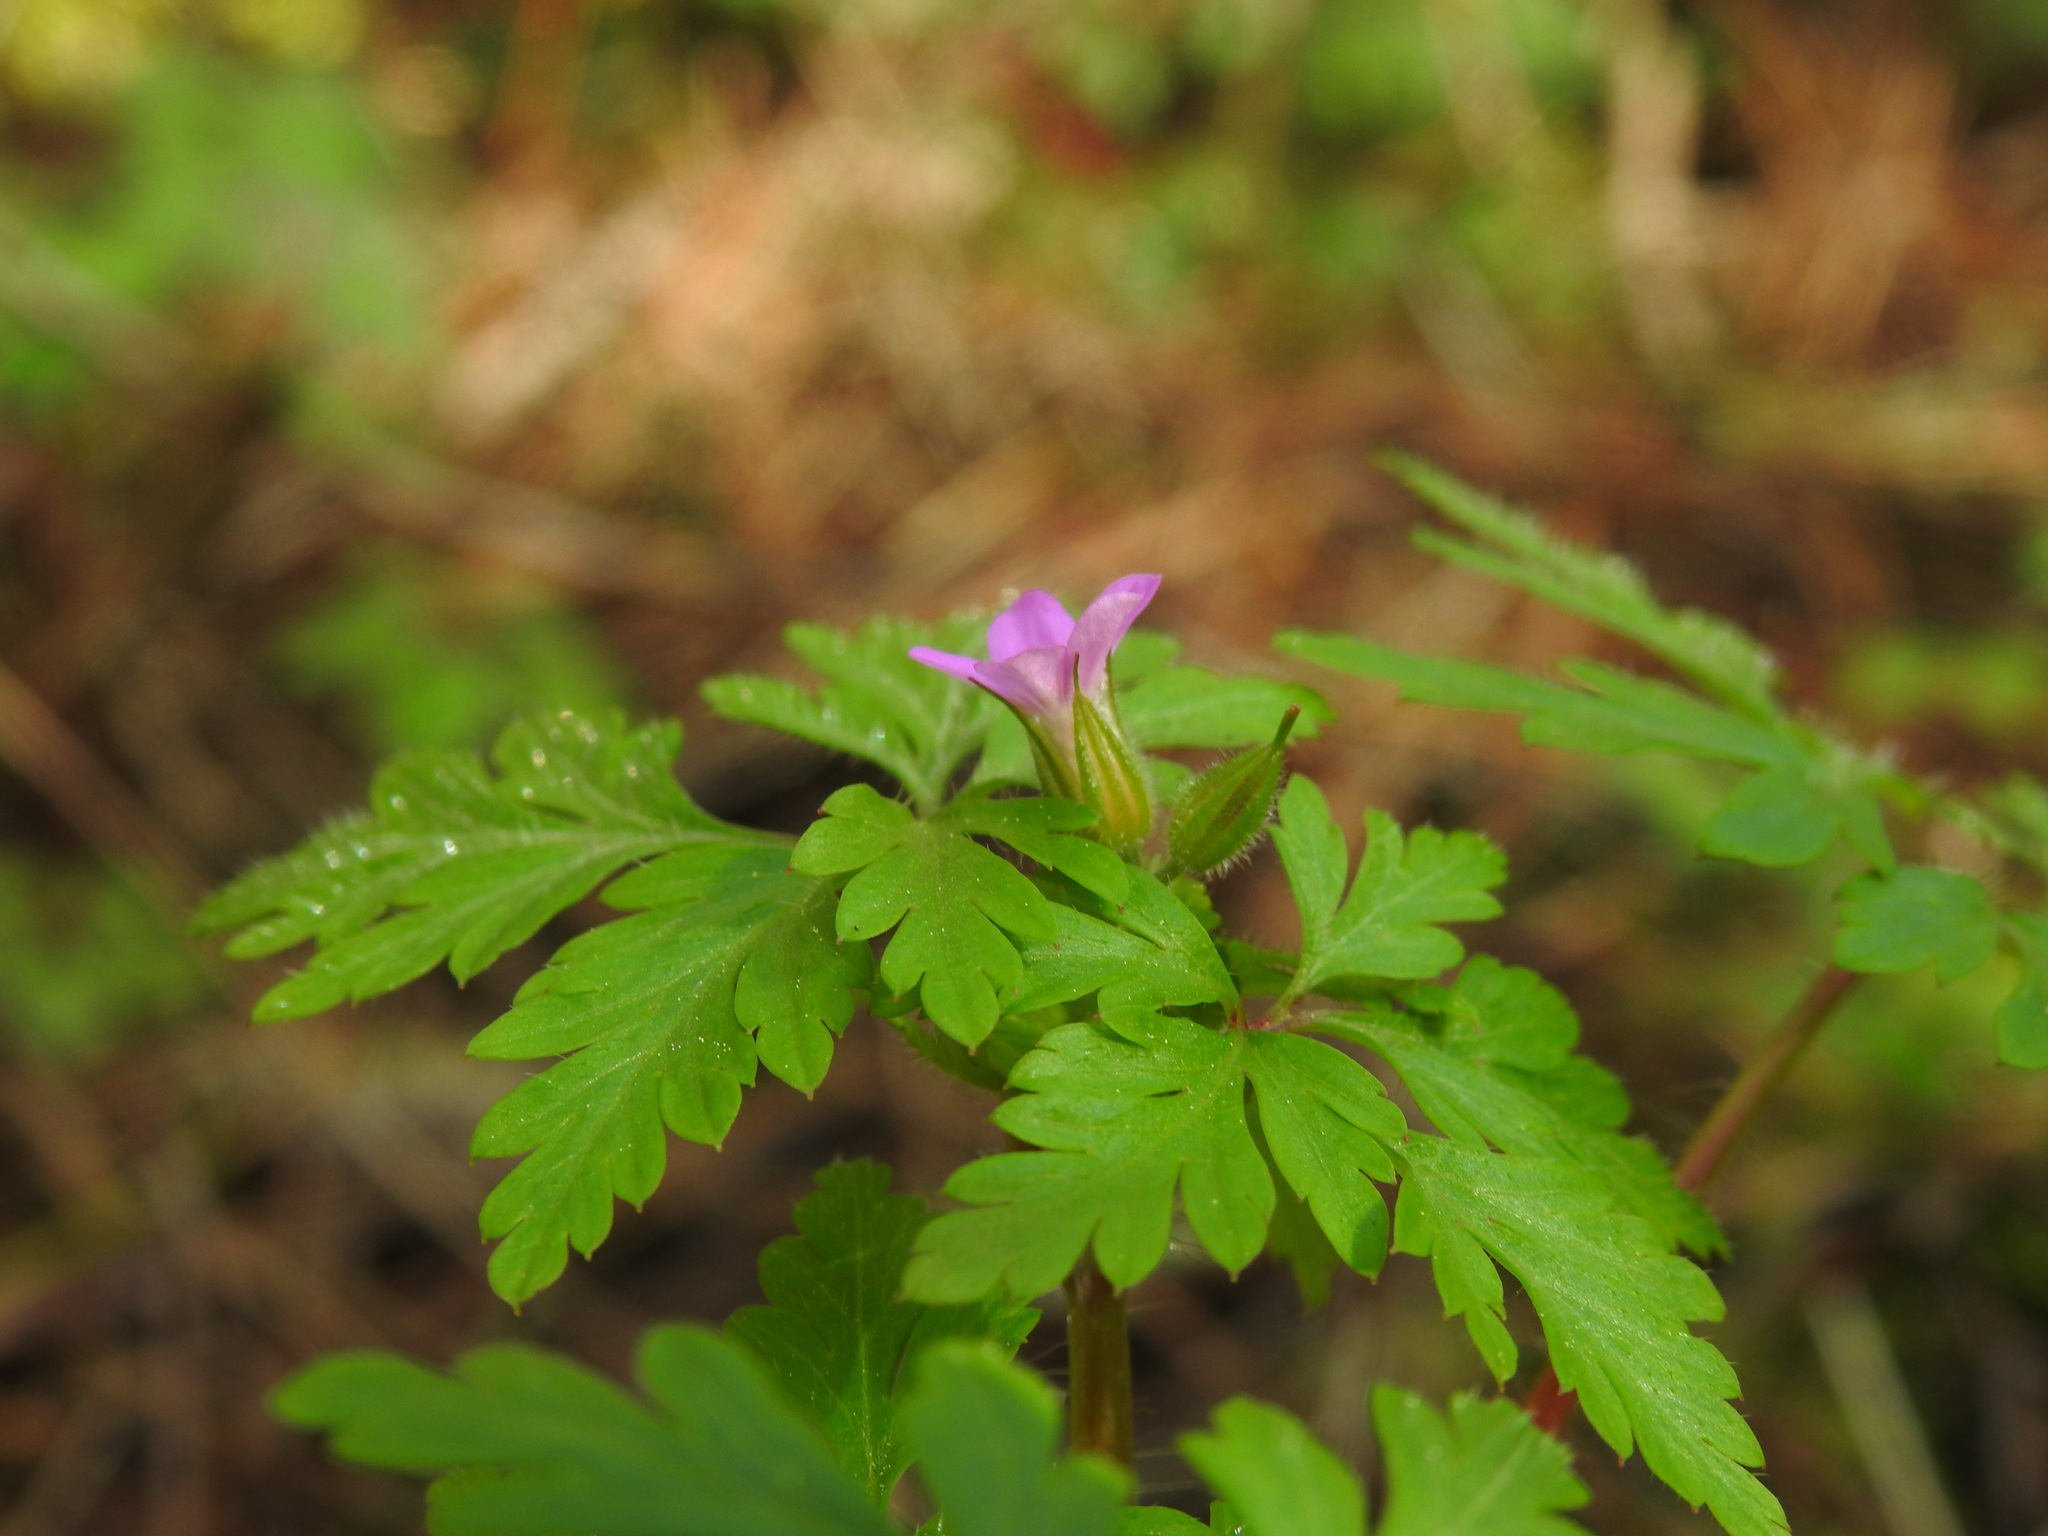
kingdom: Plantae
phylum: Tracheophyta
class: Magnoliopsida
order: Geraniales
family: Geraniaceae
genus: Geranium
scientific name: Geranium purpureum
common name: Little-robin
